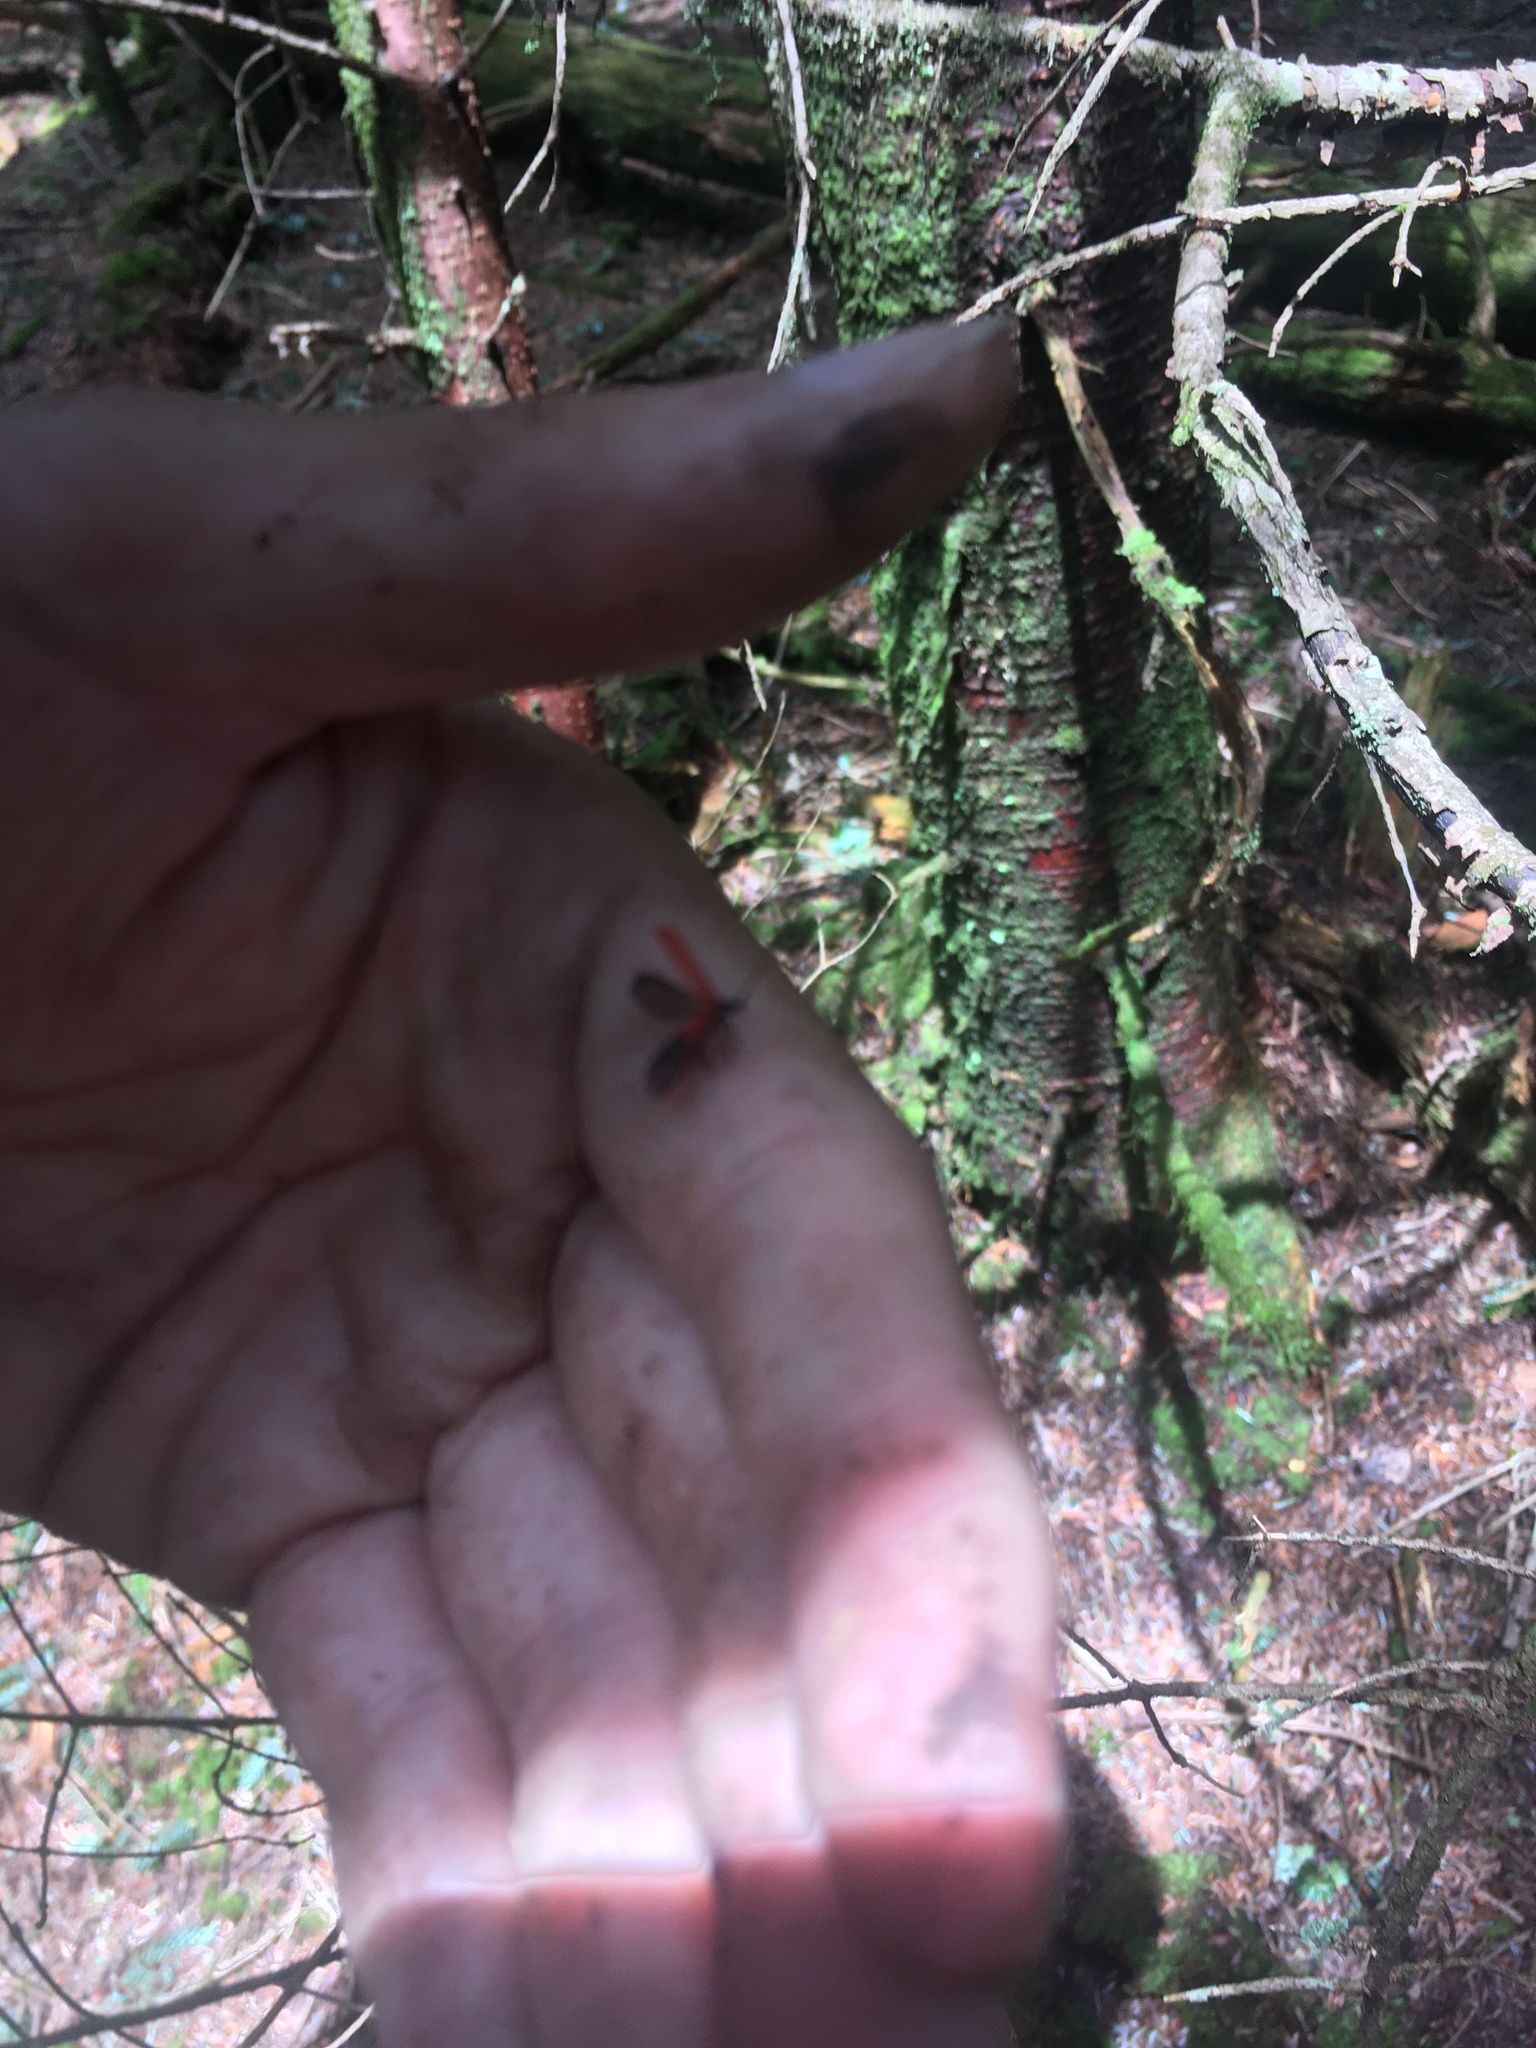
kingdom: Animalia
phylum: Arthropoda
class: Insecta
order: Coleoptera
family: Lycidae
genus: Dictyoptera
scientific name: Dictyoptera aurora
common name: Golden net-winged beetle
